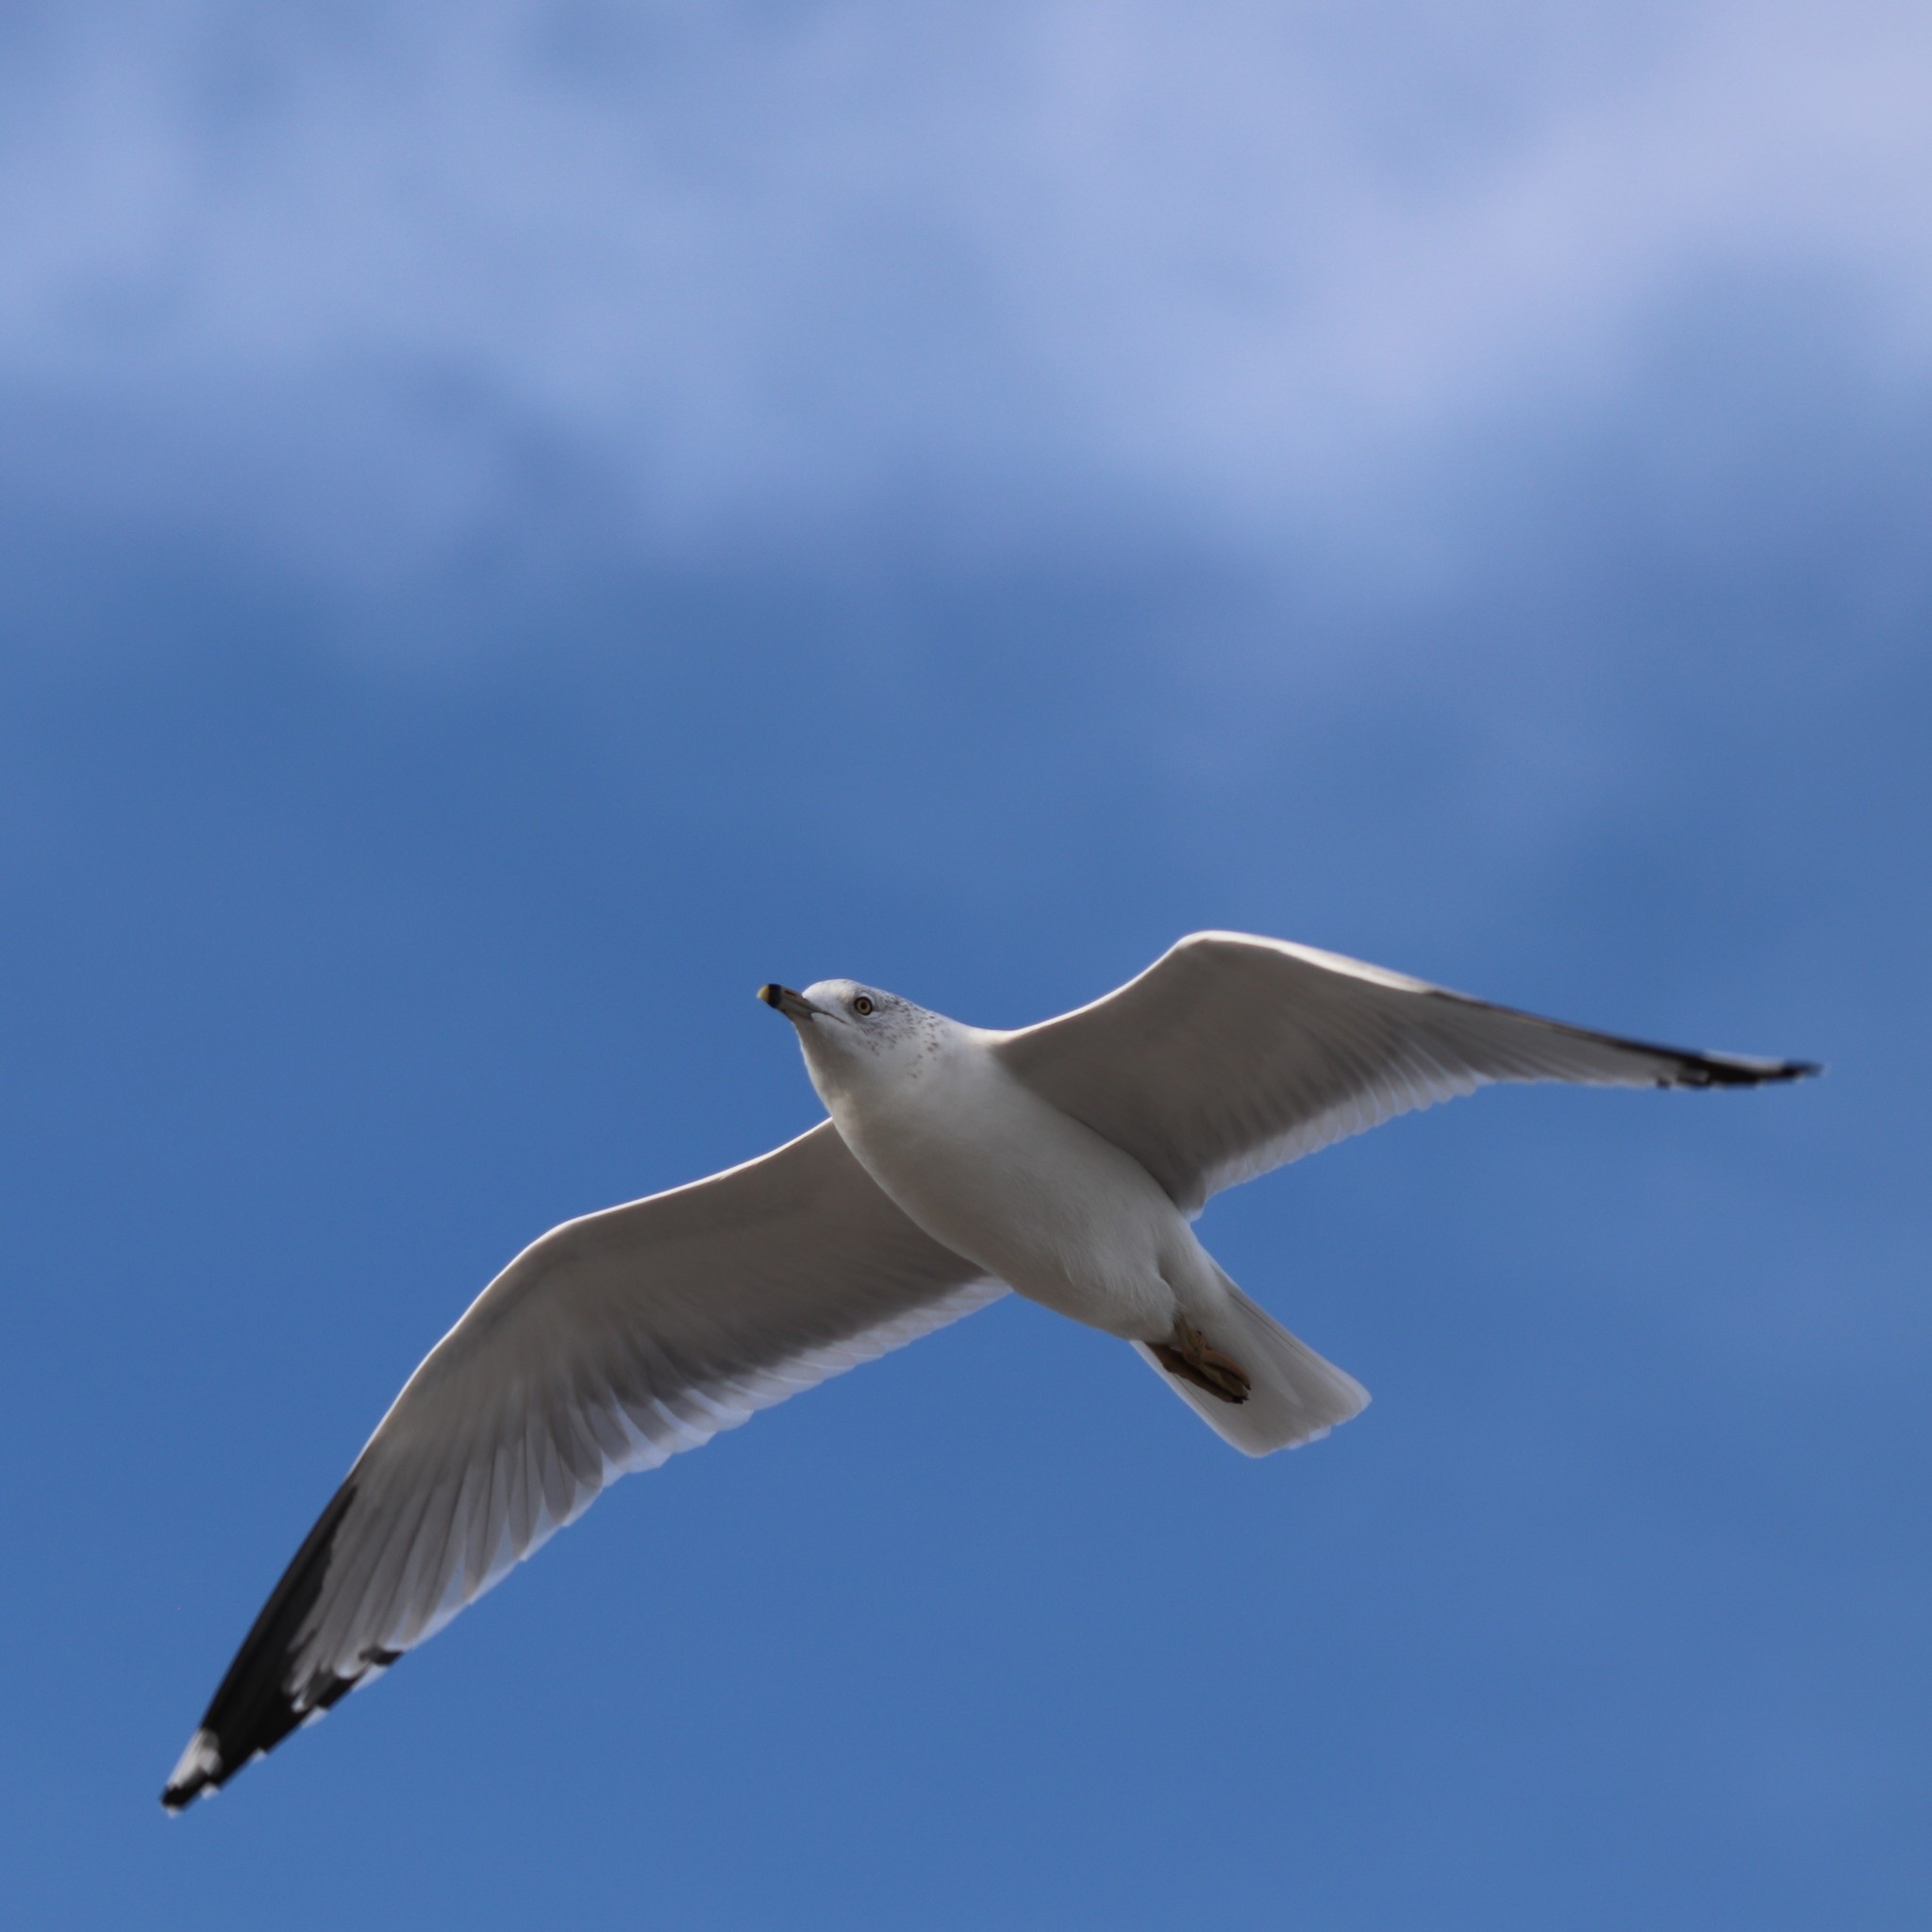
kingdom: Animalia
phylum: Chordata
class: Aves
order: Charadriiformes
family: Laridae
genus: Larus
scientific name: Larus delawarensis
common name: Ring-billed gull
